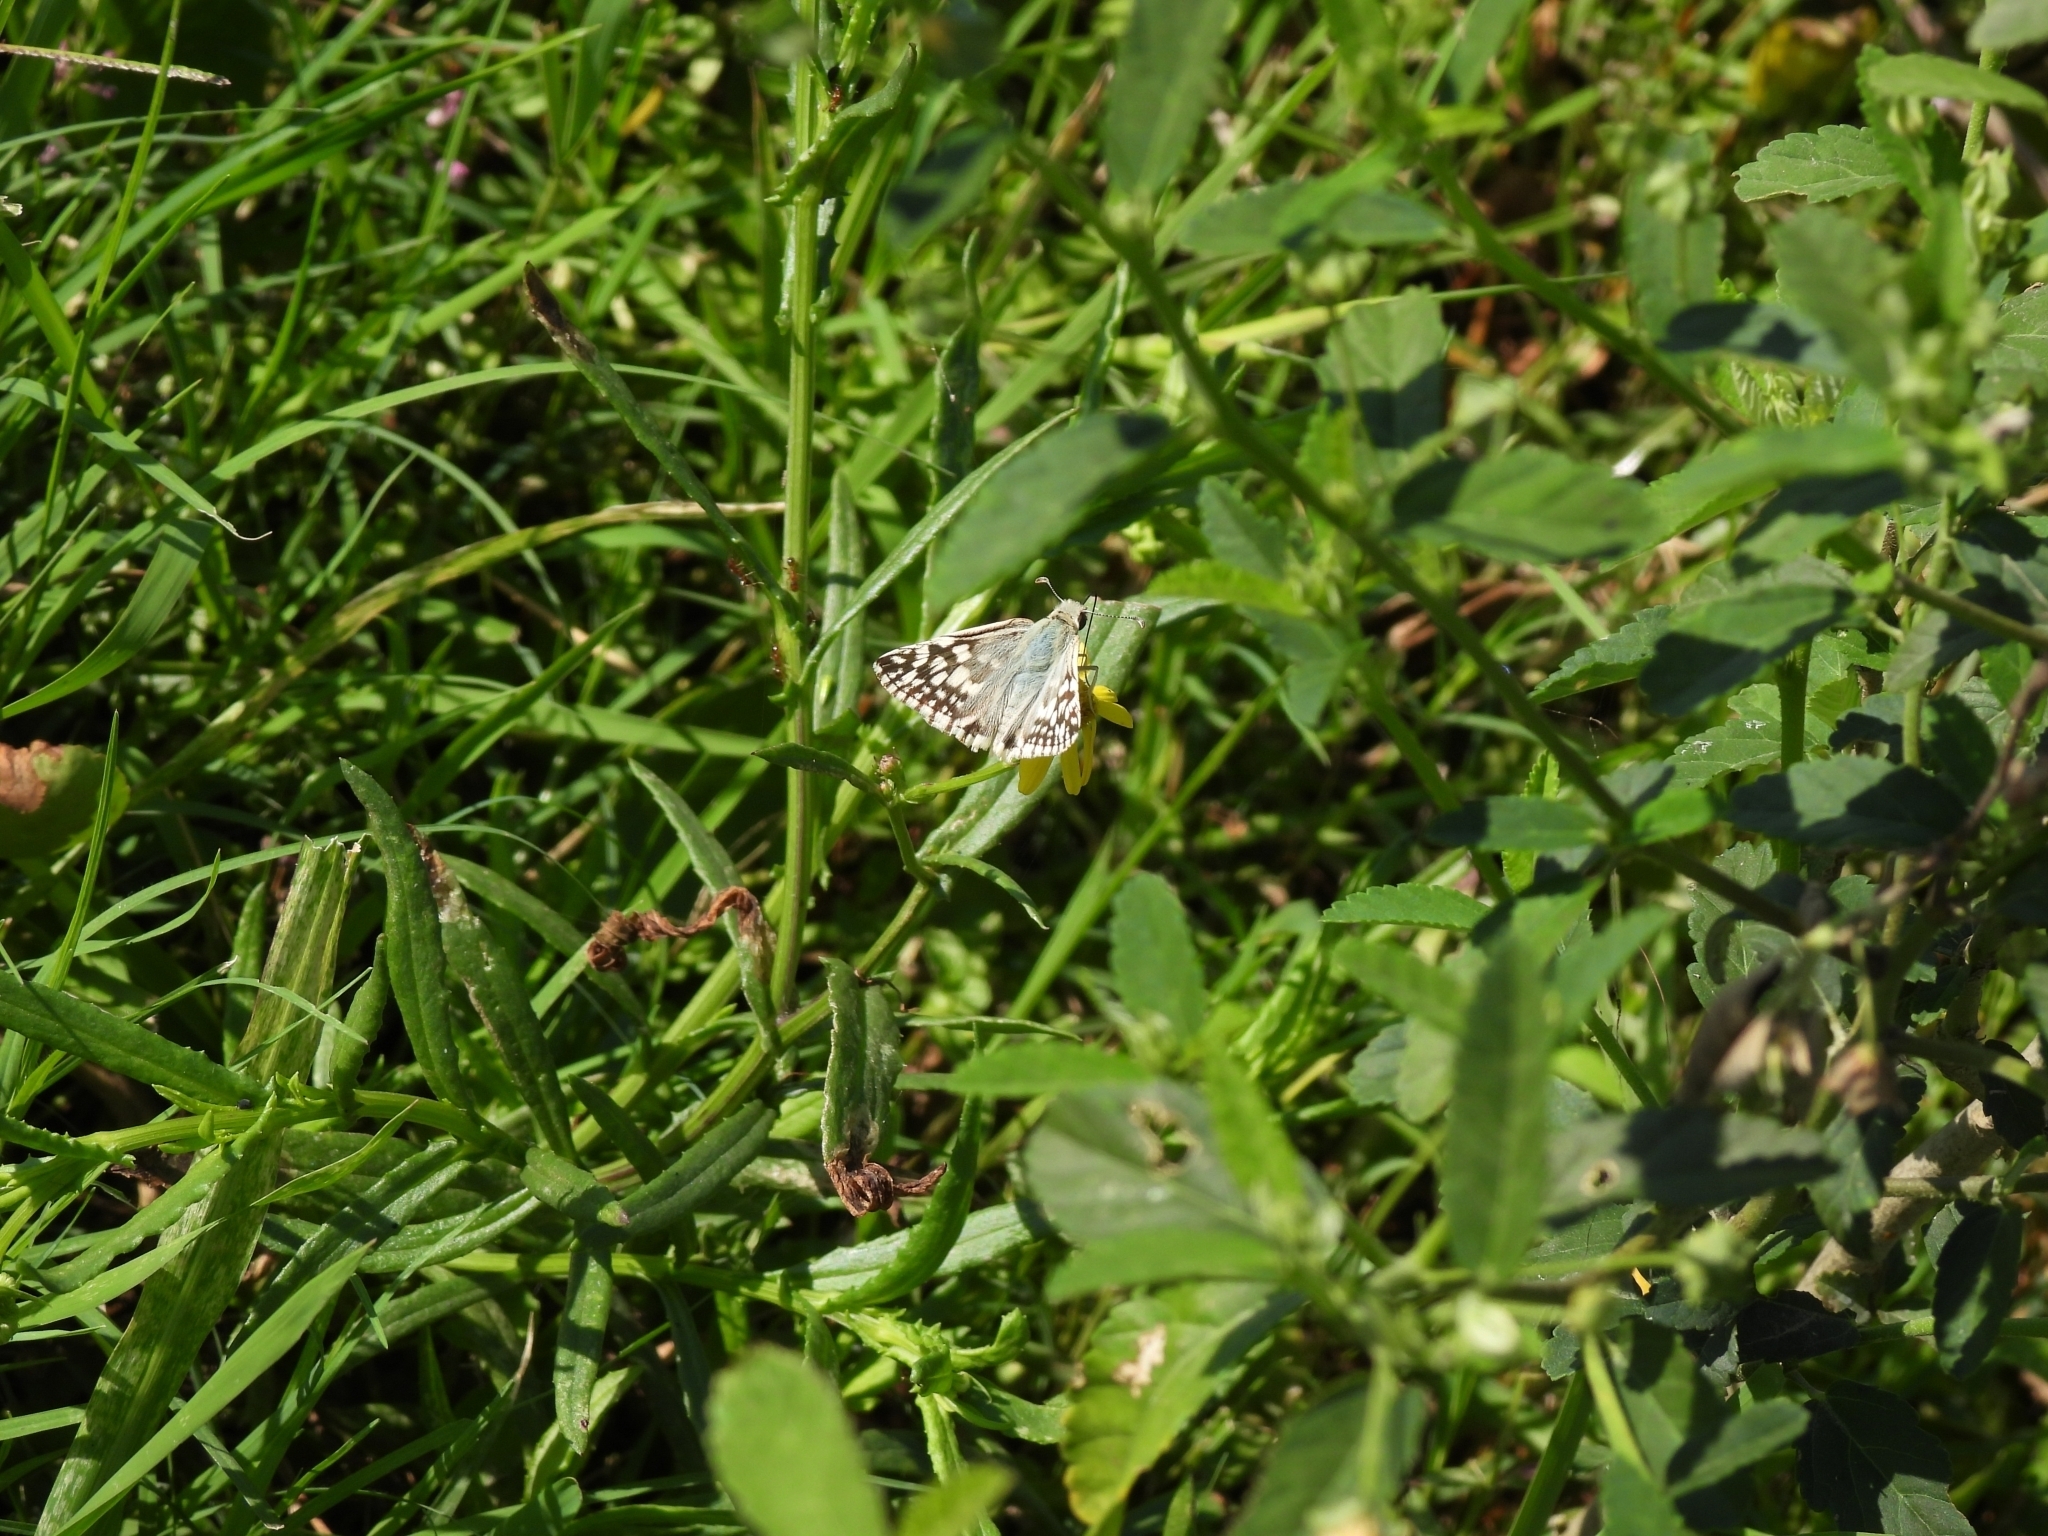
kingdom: Animalia
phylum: Arthropoda
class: Insecta
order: Lepidoptera
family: Hesperiidae
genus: Heliopetes
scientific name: Heliopetes americanus
